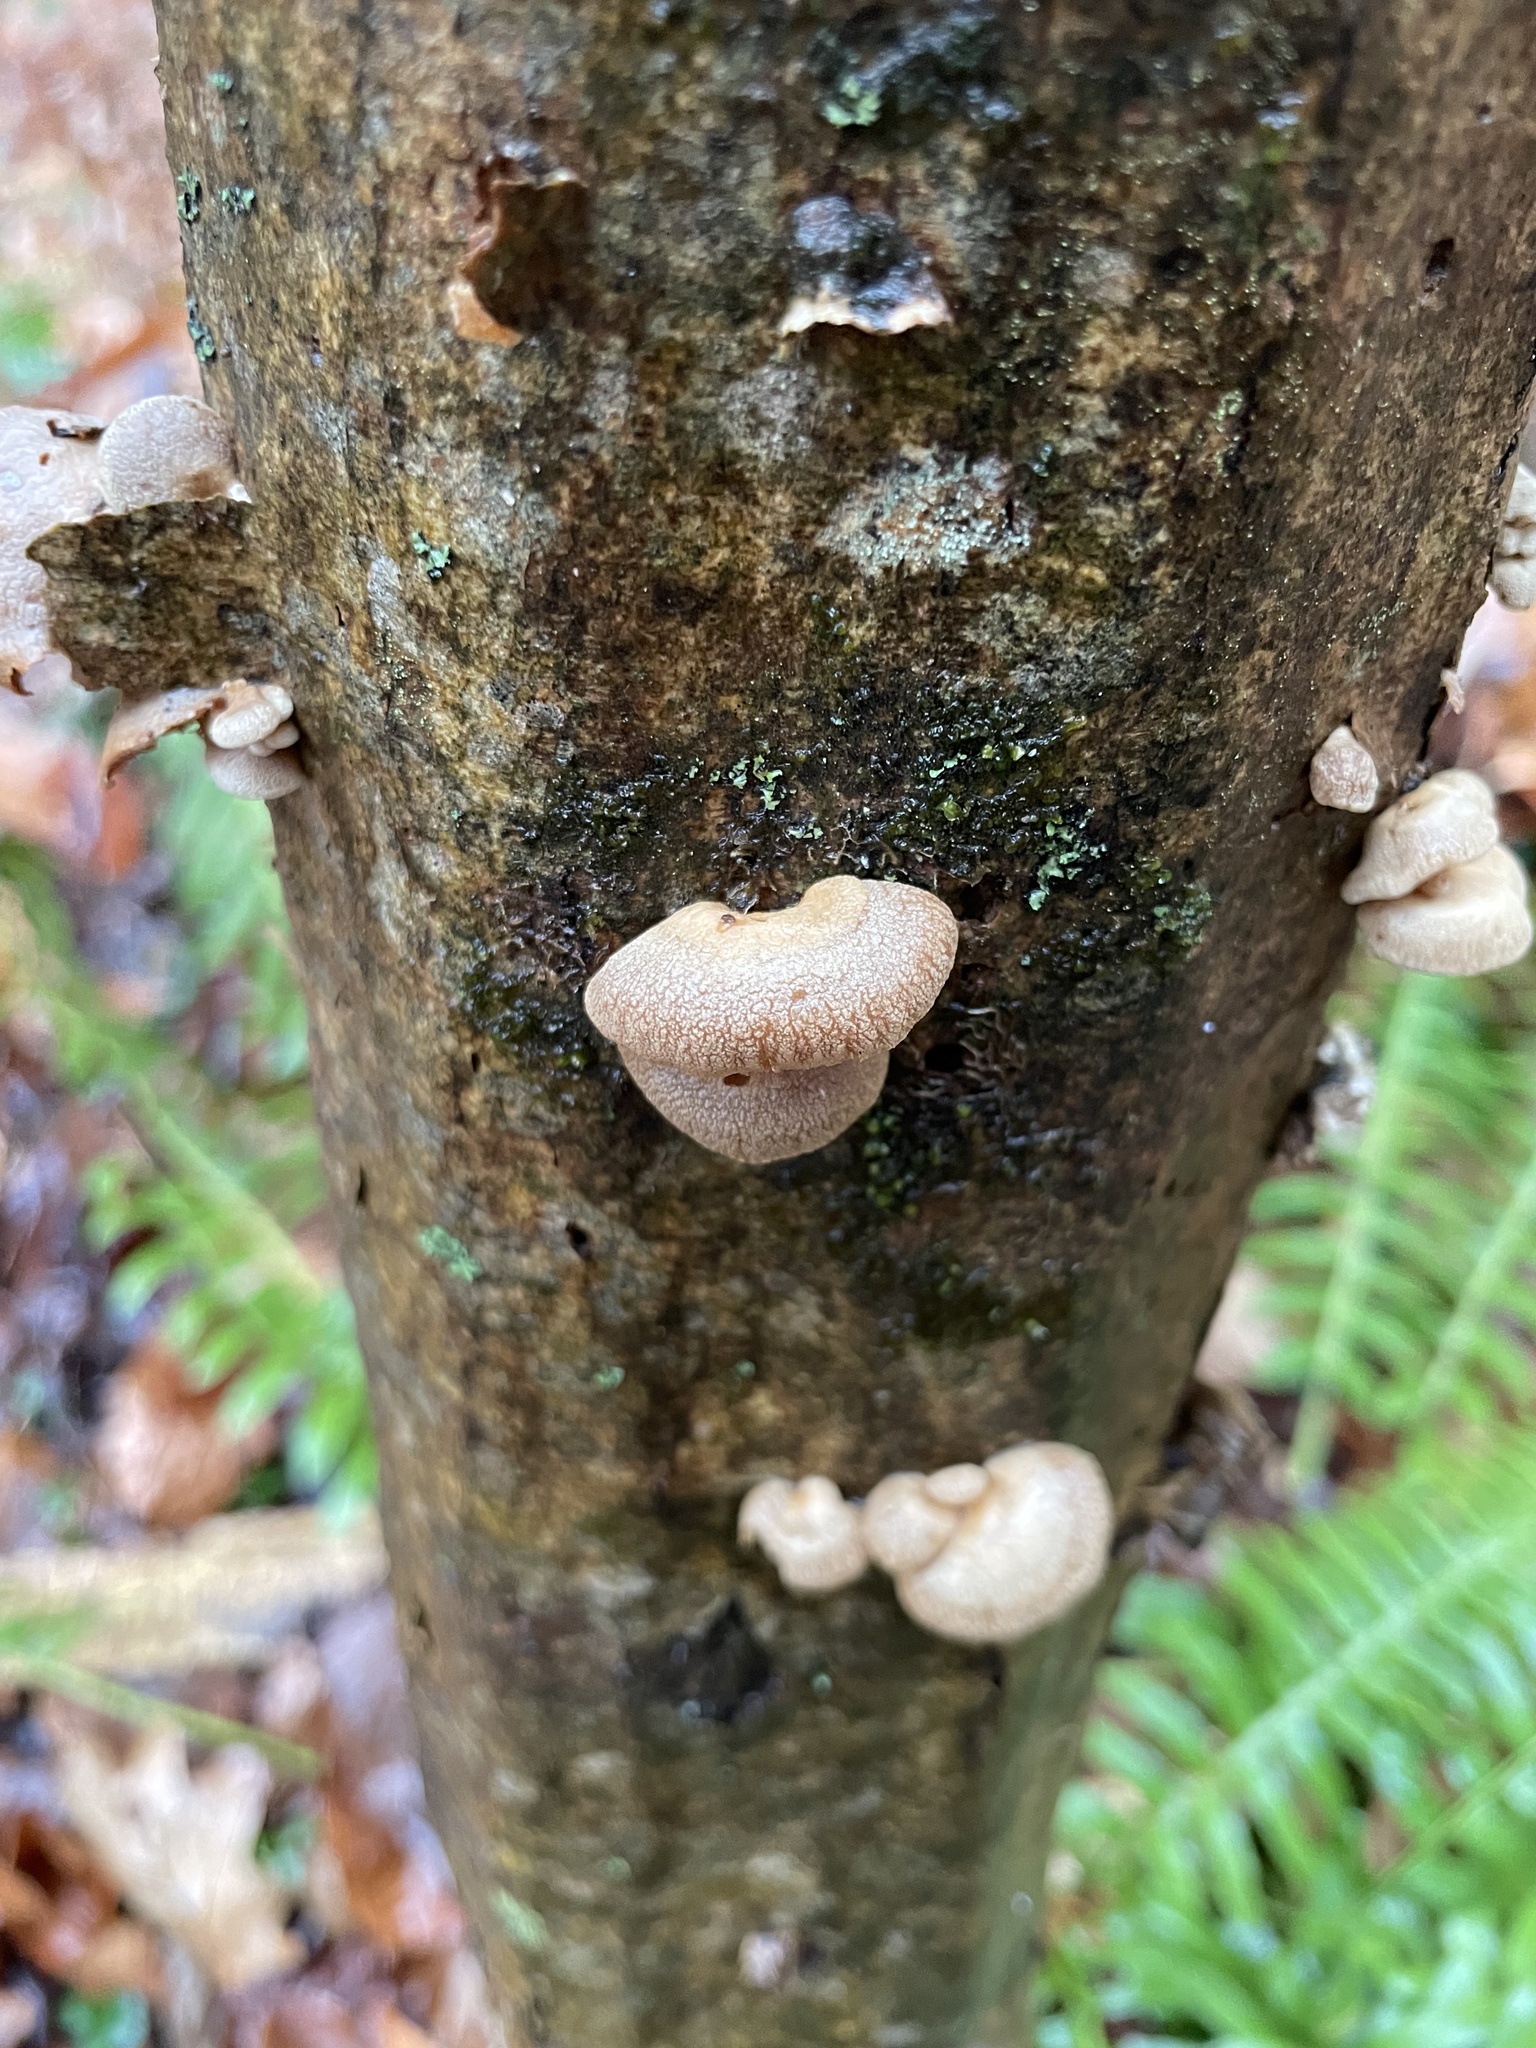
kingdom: Fungi
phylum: Basidiomycota
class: Agaricomycetes
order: Agaricales
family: Mycenaceae
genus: Panellus
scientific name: Panellus stipticus
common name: Bitter oysterling
